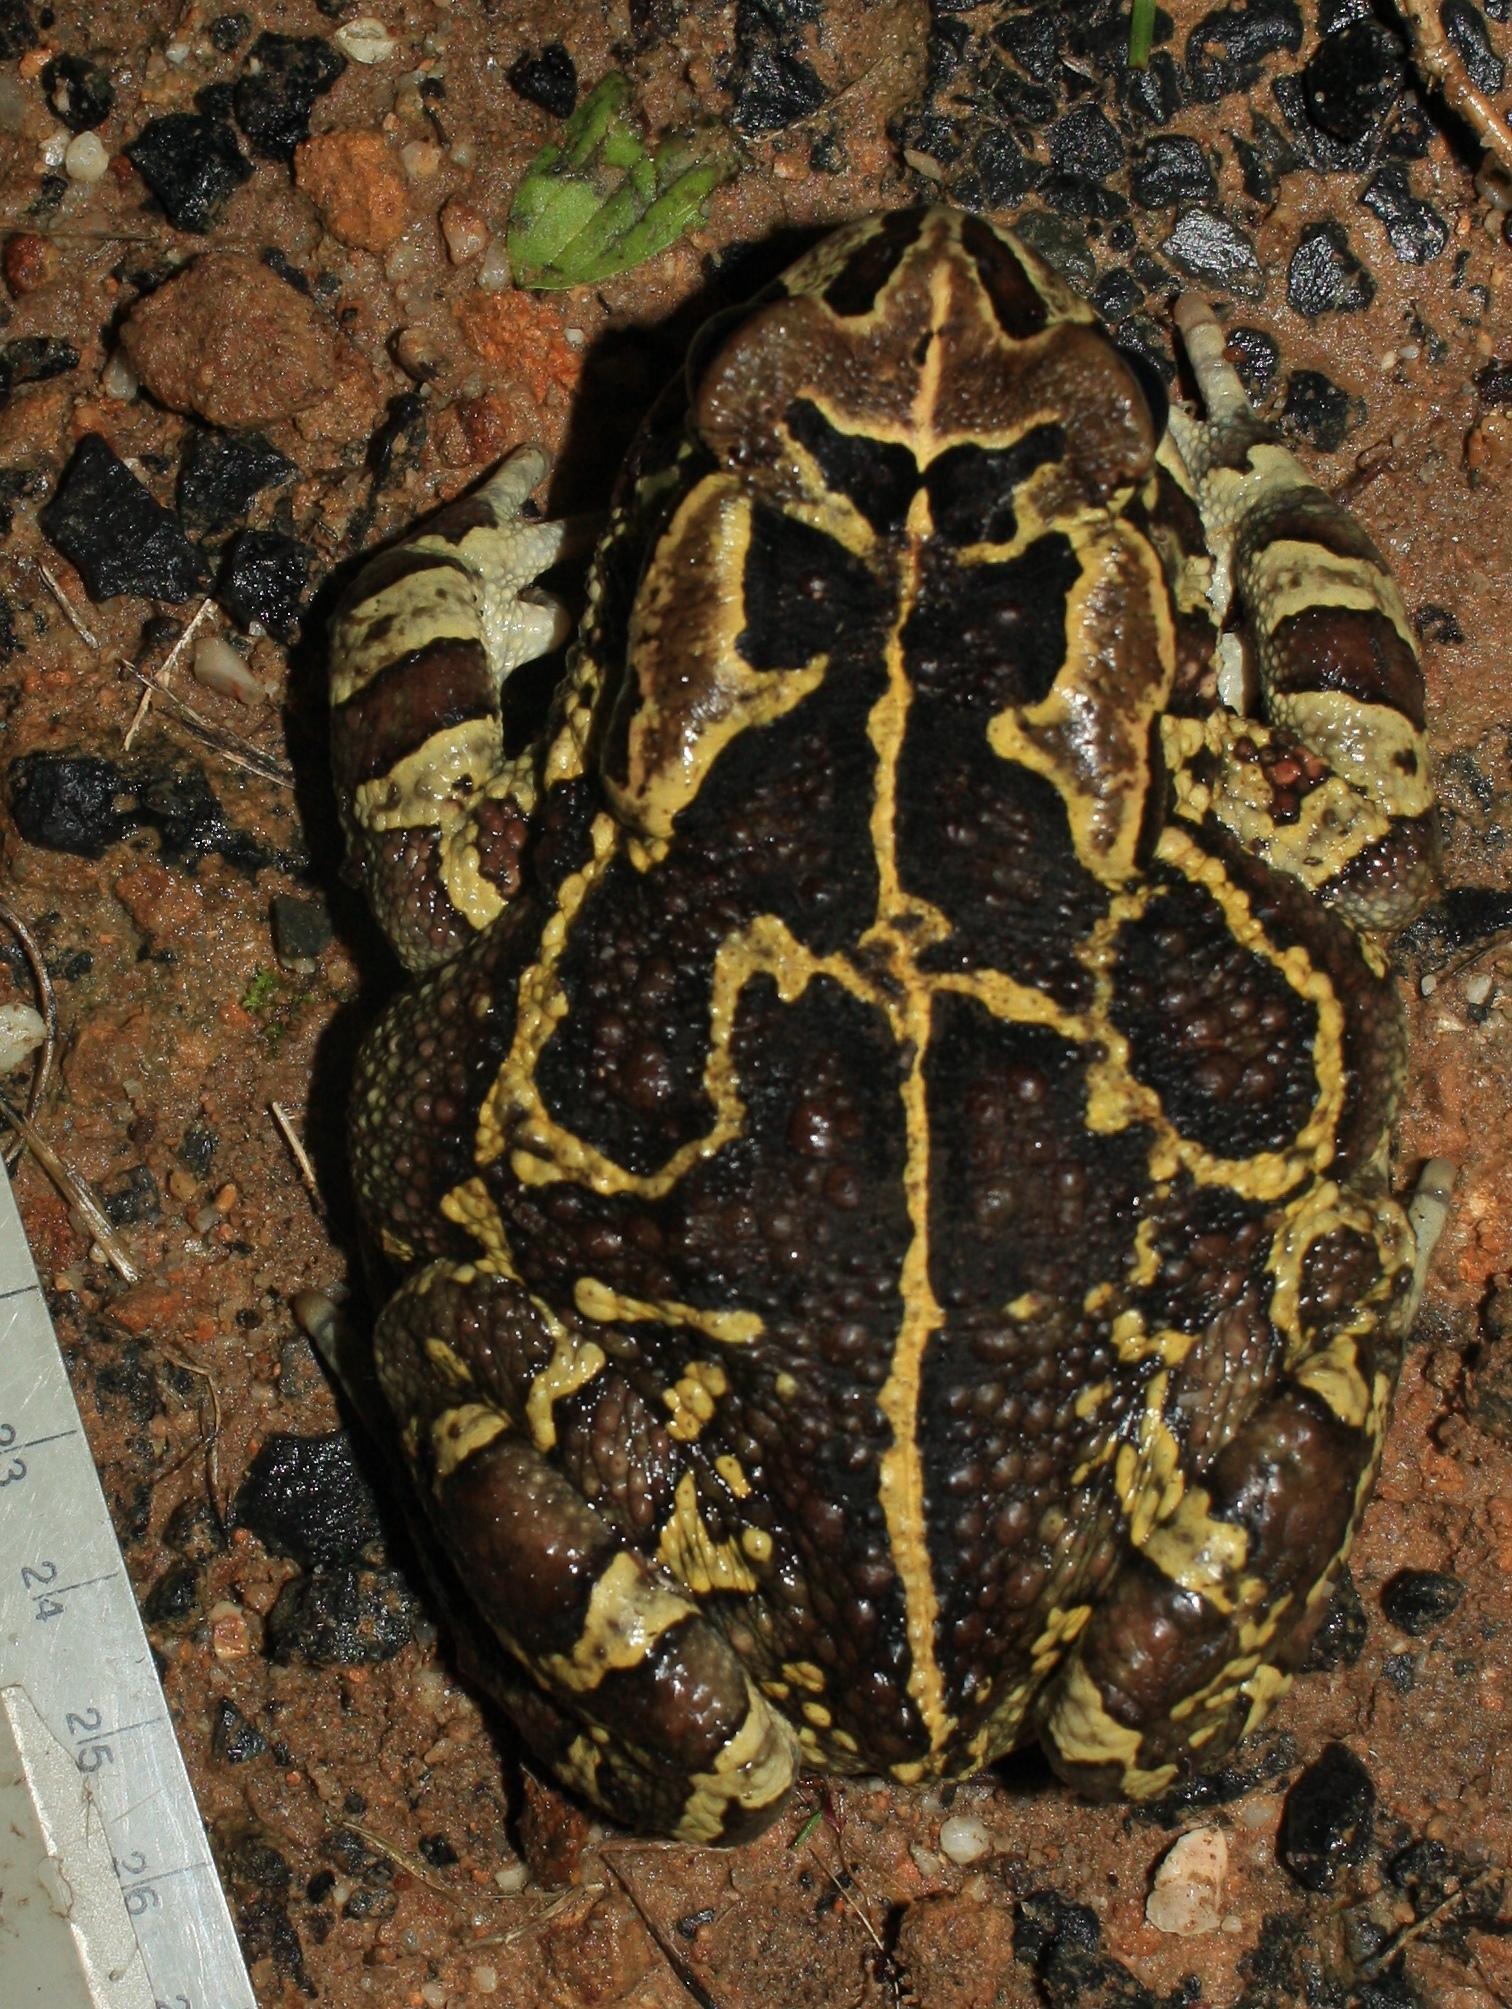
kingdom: Animalia
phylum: Chordata
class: Amphibia
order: Anura
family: Bufonidae
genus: Sclerophrys
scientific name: Sclerophrys pantherina
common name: Panther toad
